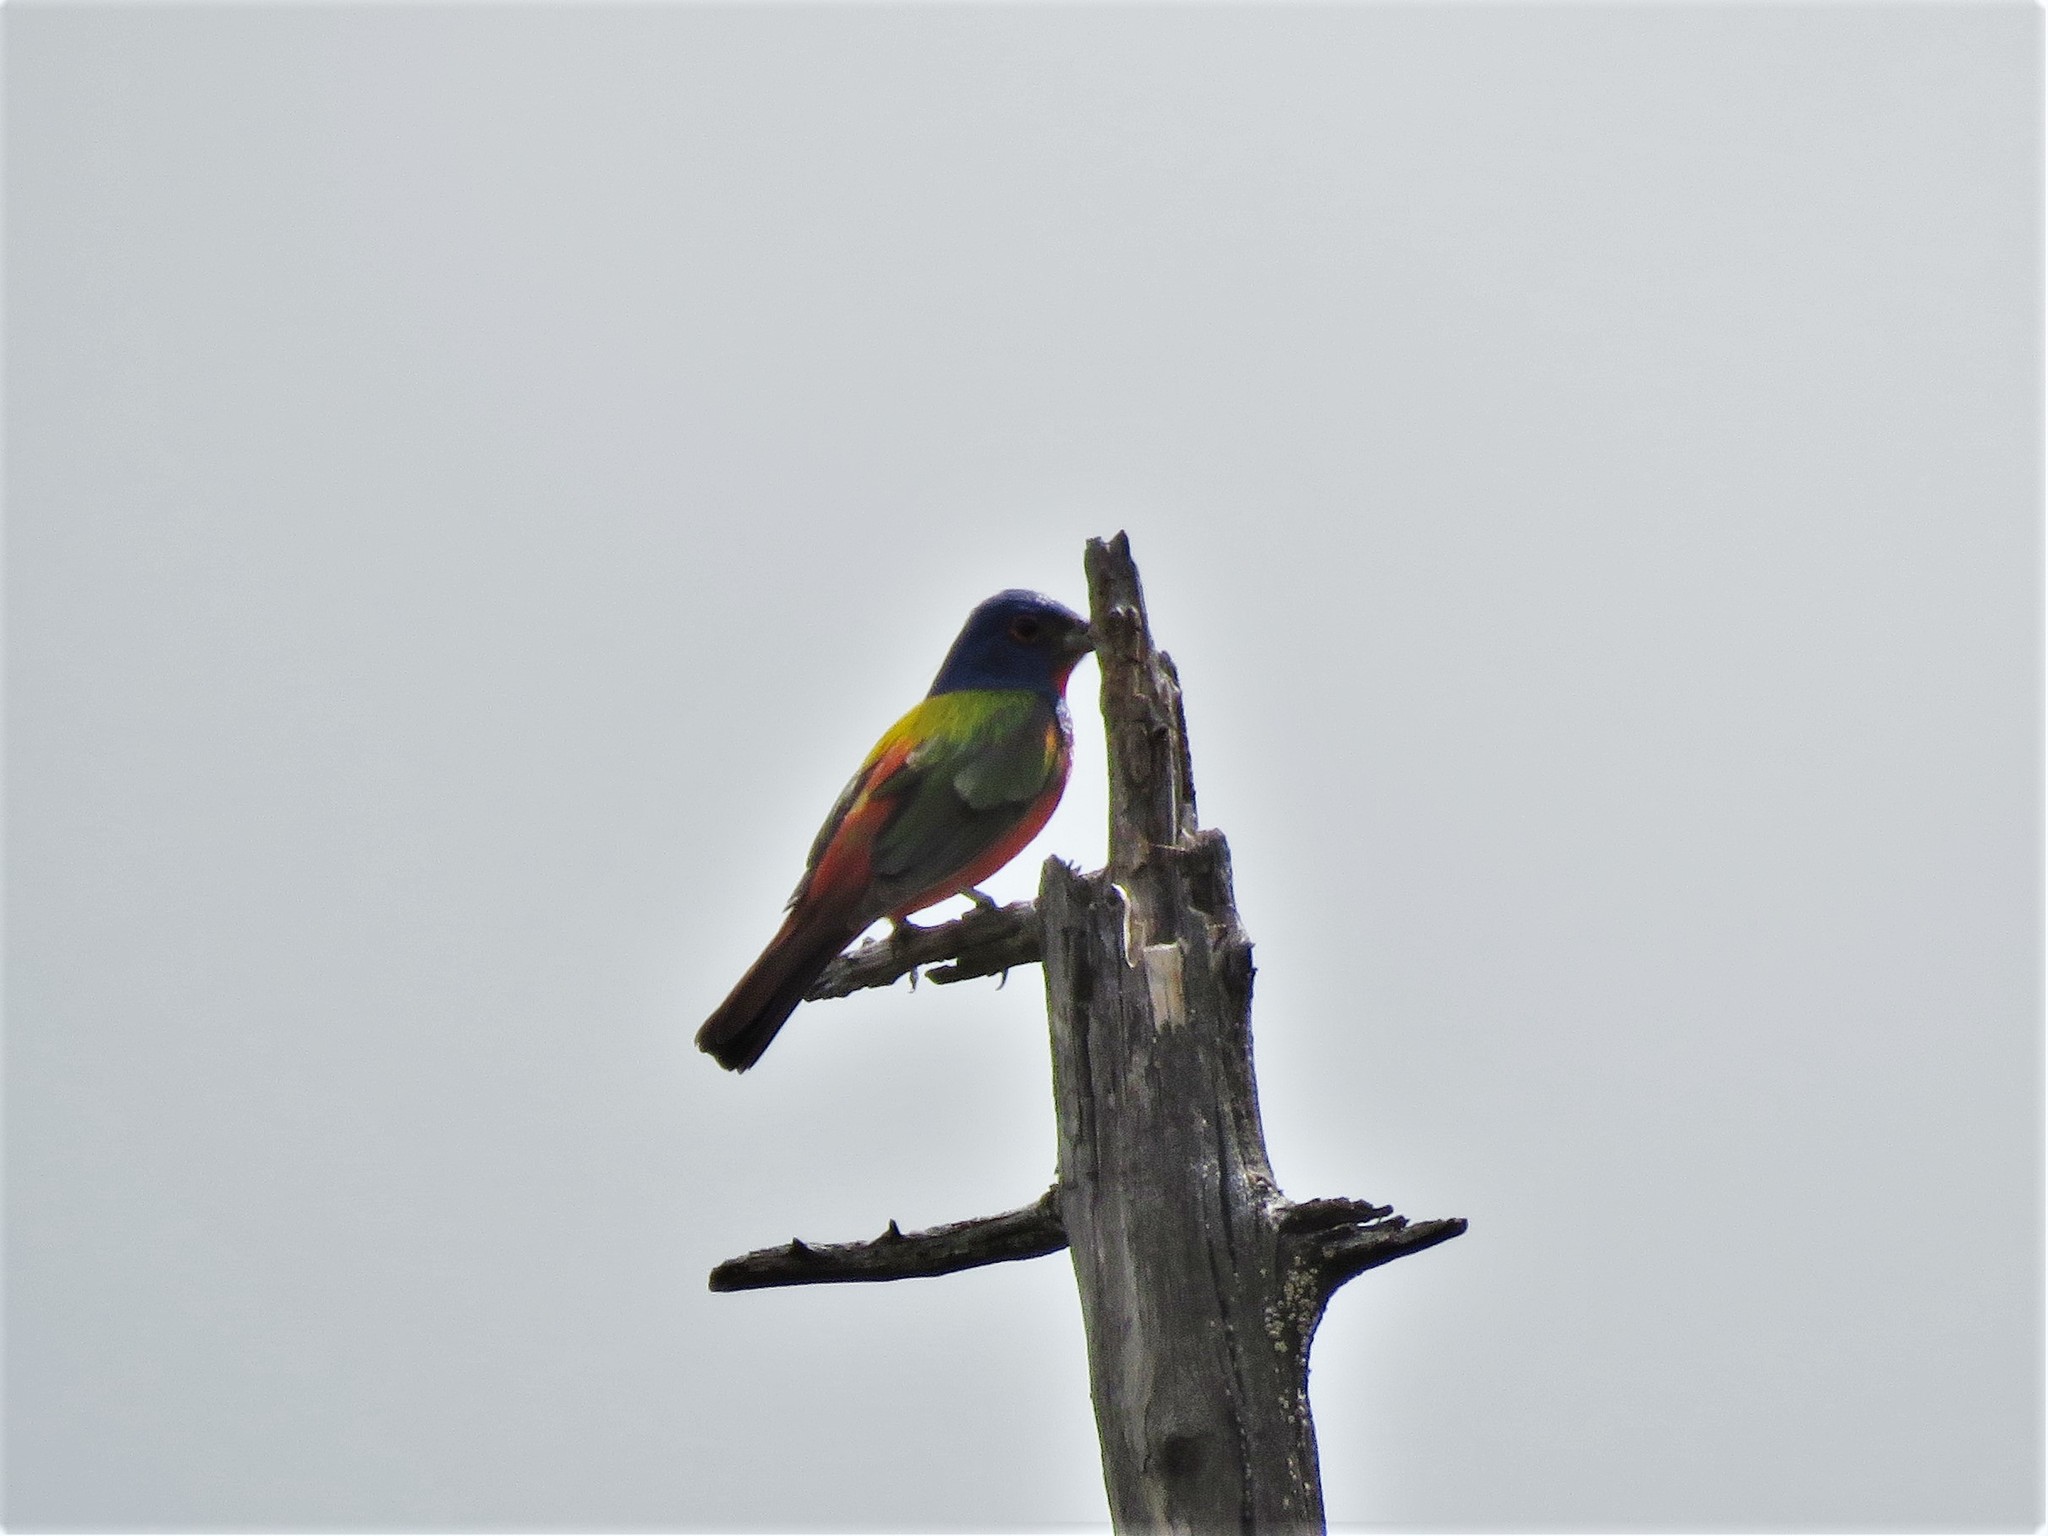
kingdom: Animalia
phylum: Chordata
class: Aves
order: Passeriformes
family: Cardinalidae
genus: Passerina
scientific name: Passerina ciris
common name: Painted bunting
